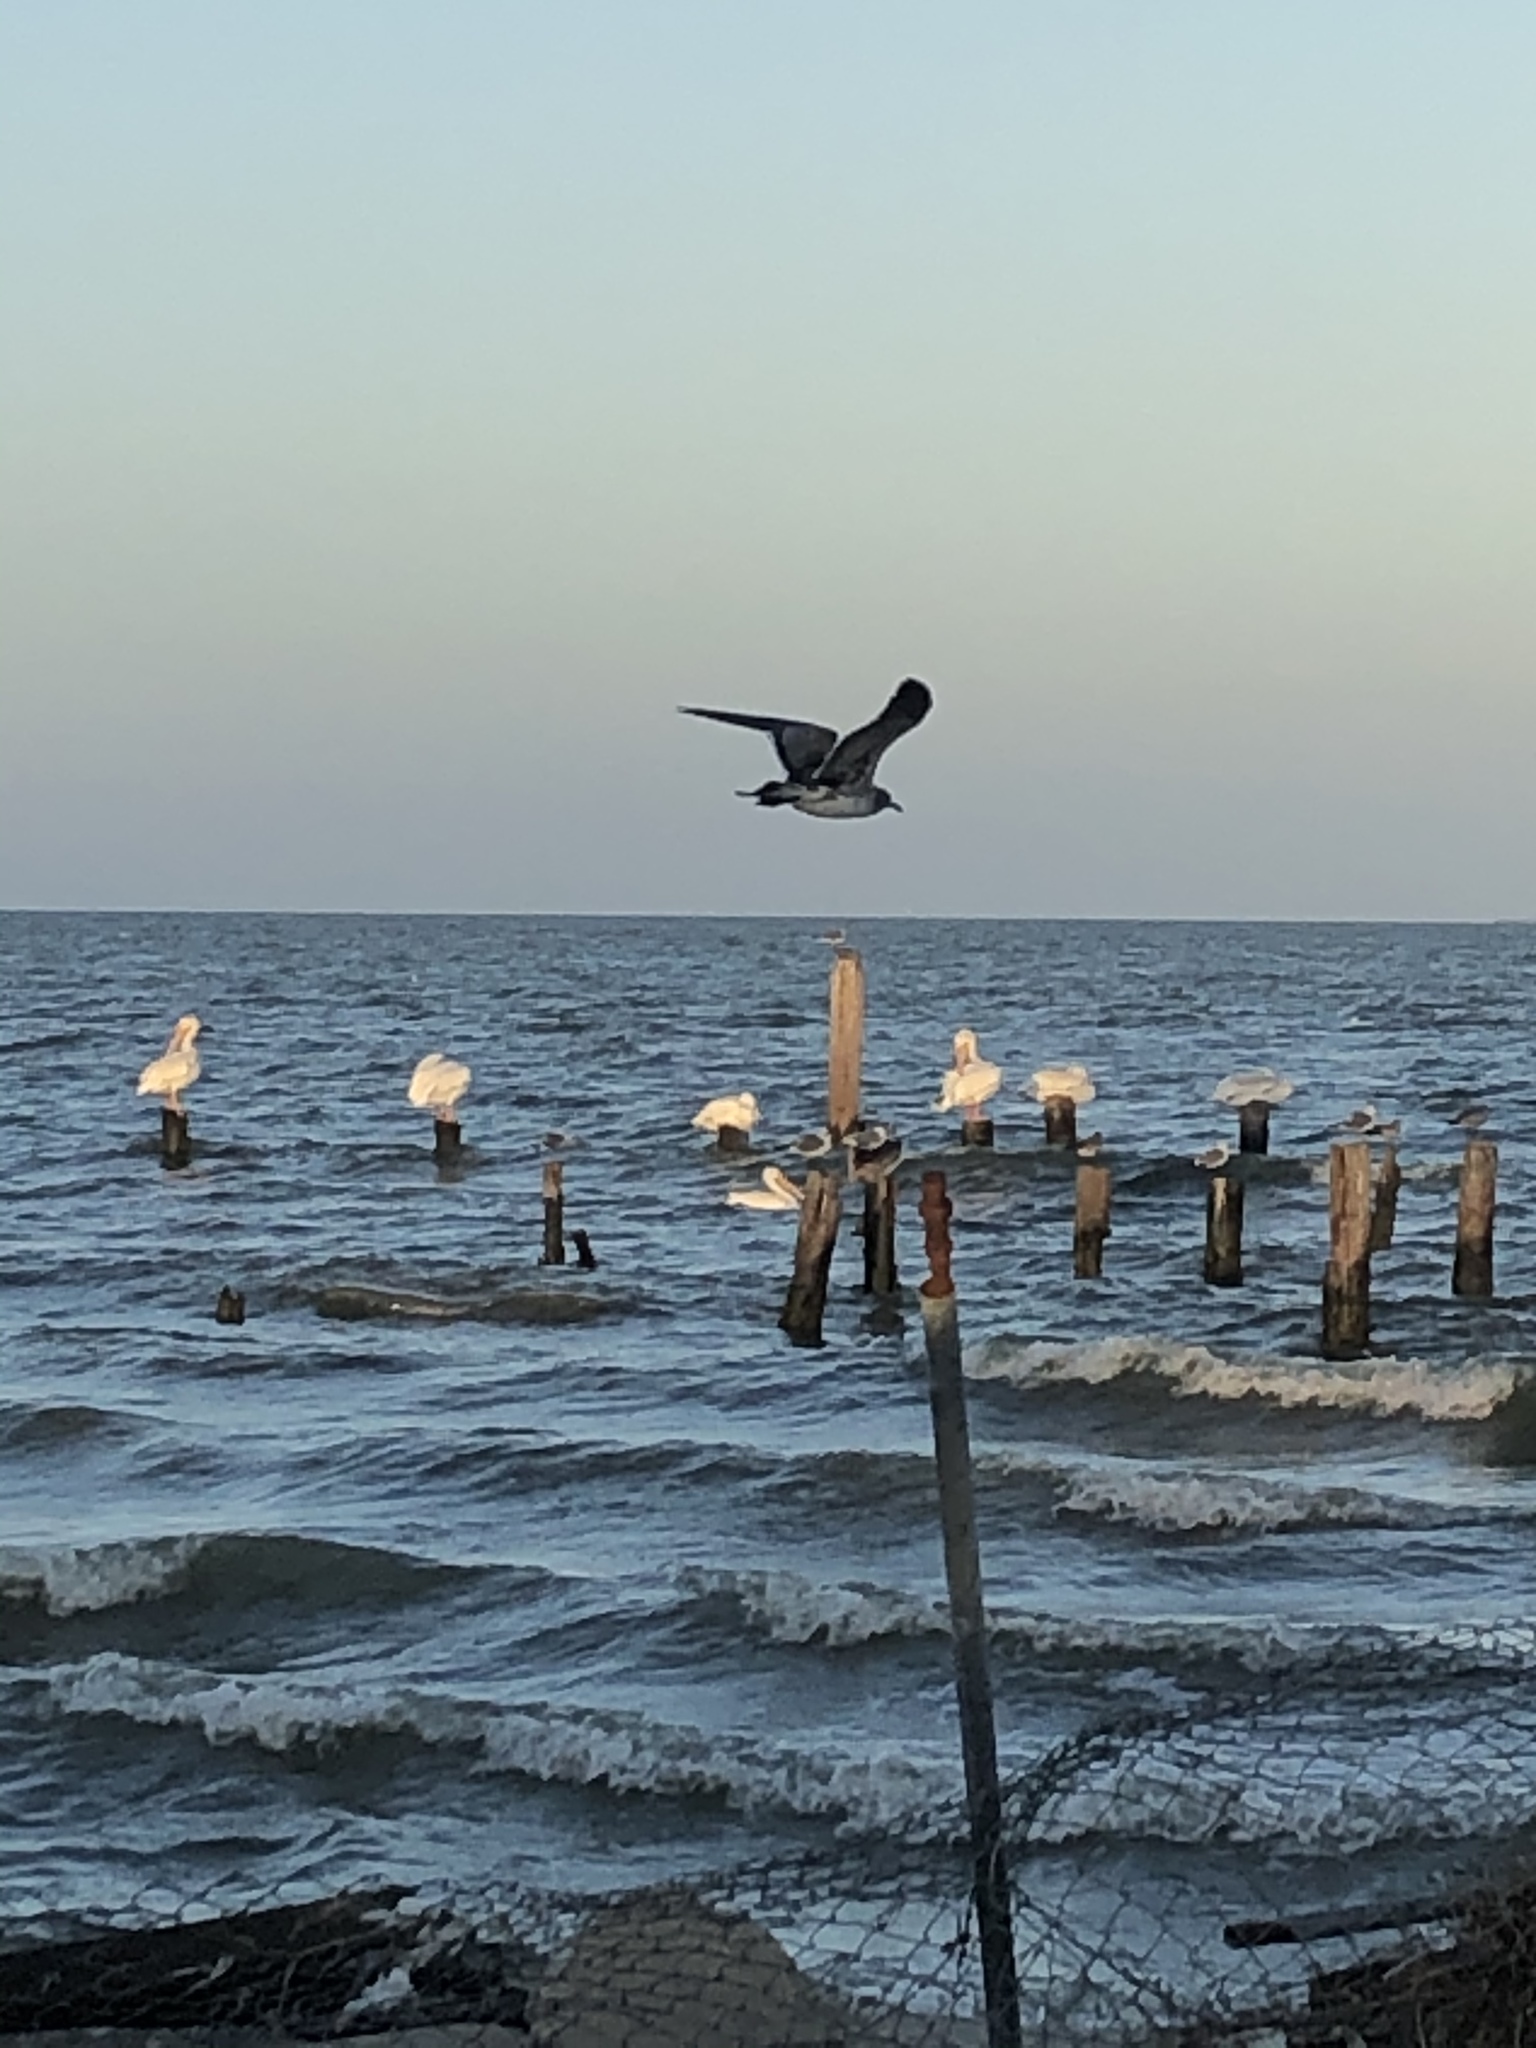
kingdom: Animalia
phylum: Chordata
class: Aves
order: Charadriiformes
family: Laridae
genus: Leucophaeus
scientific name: Leucophaeus atricilla
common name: Laughing gull
